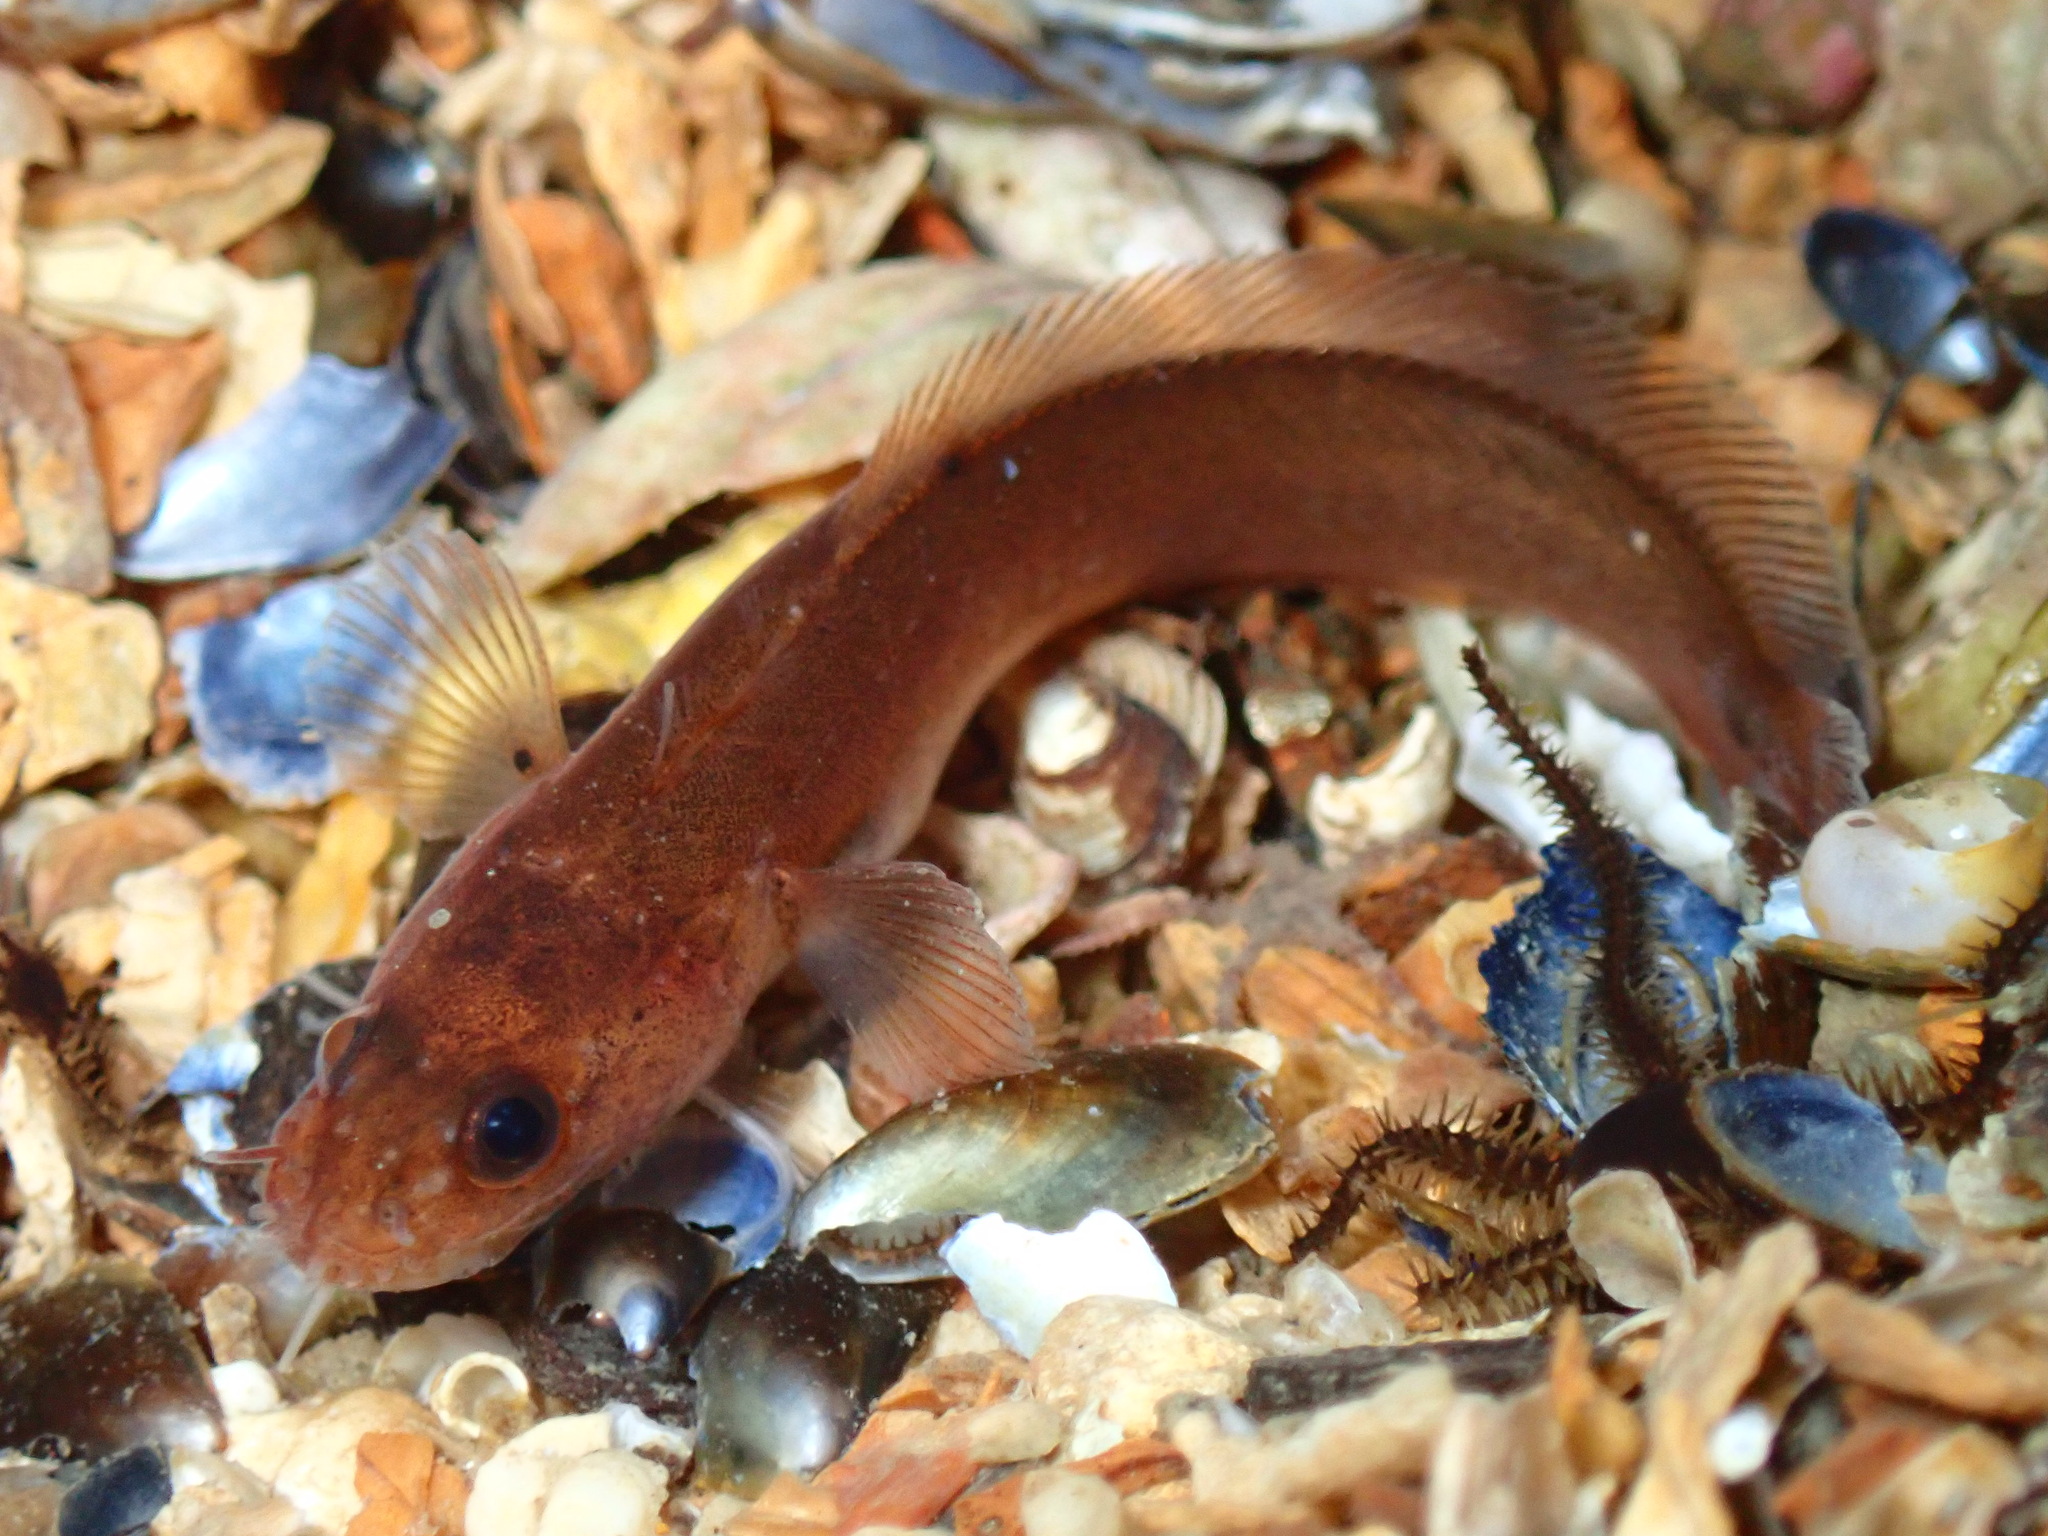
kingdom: Animalia
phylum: Chordata
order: Gadiformes
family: Lotidae
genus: Ciliata
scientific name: Ciliata septentrionalis
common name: Northern rockling
